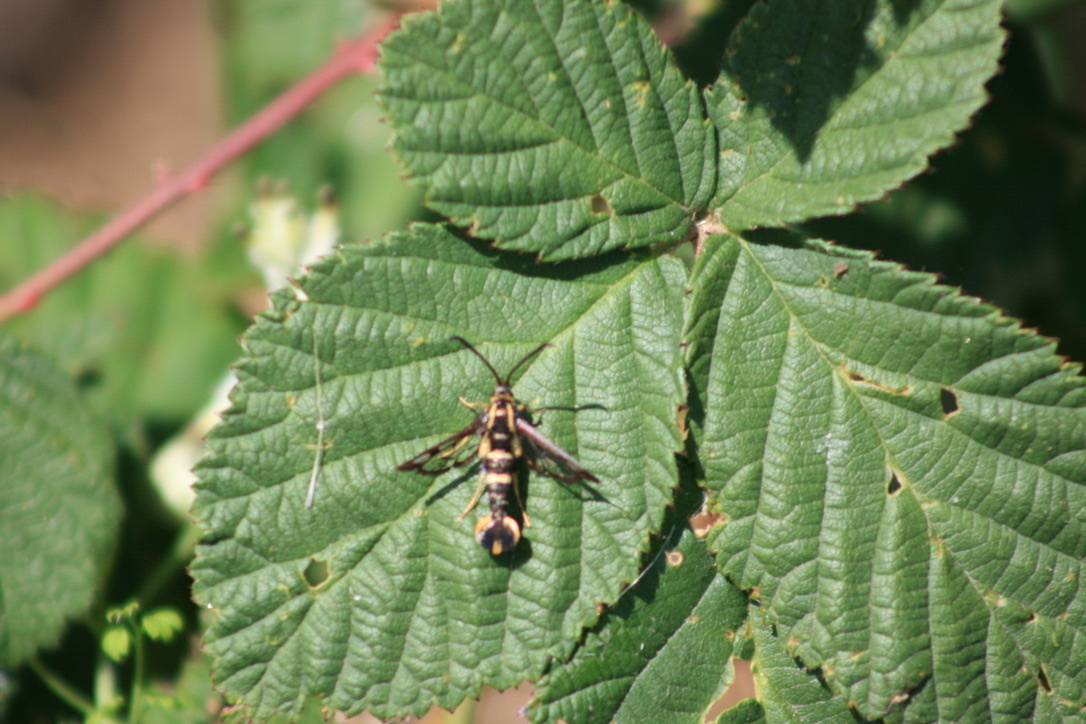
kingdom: Animalia
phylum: Arthropoda
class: Insecta
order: Lepidoptera
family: Sesiidae
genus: Synanthedon
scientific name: Synanthedon bibionipennis
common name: Strawberry crown moth
